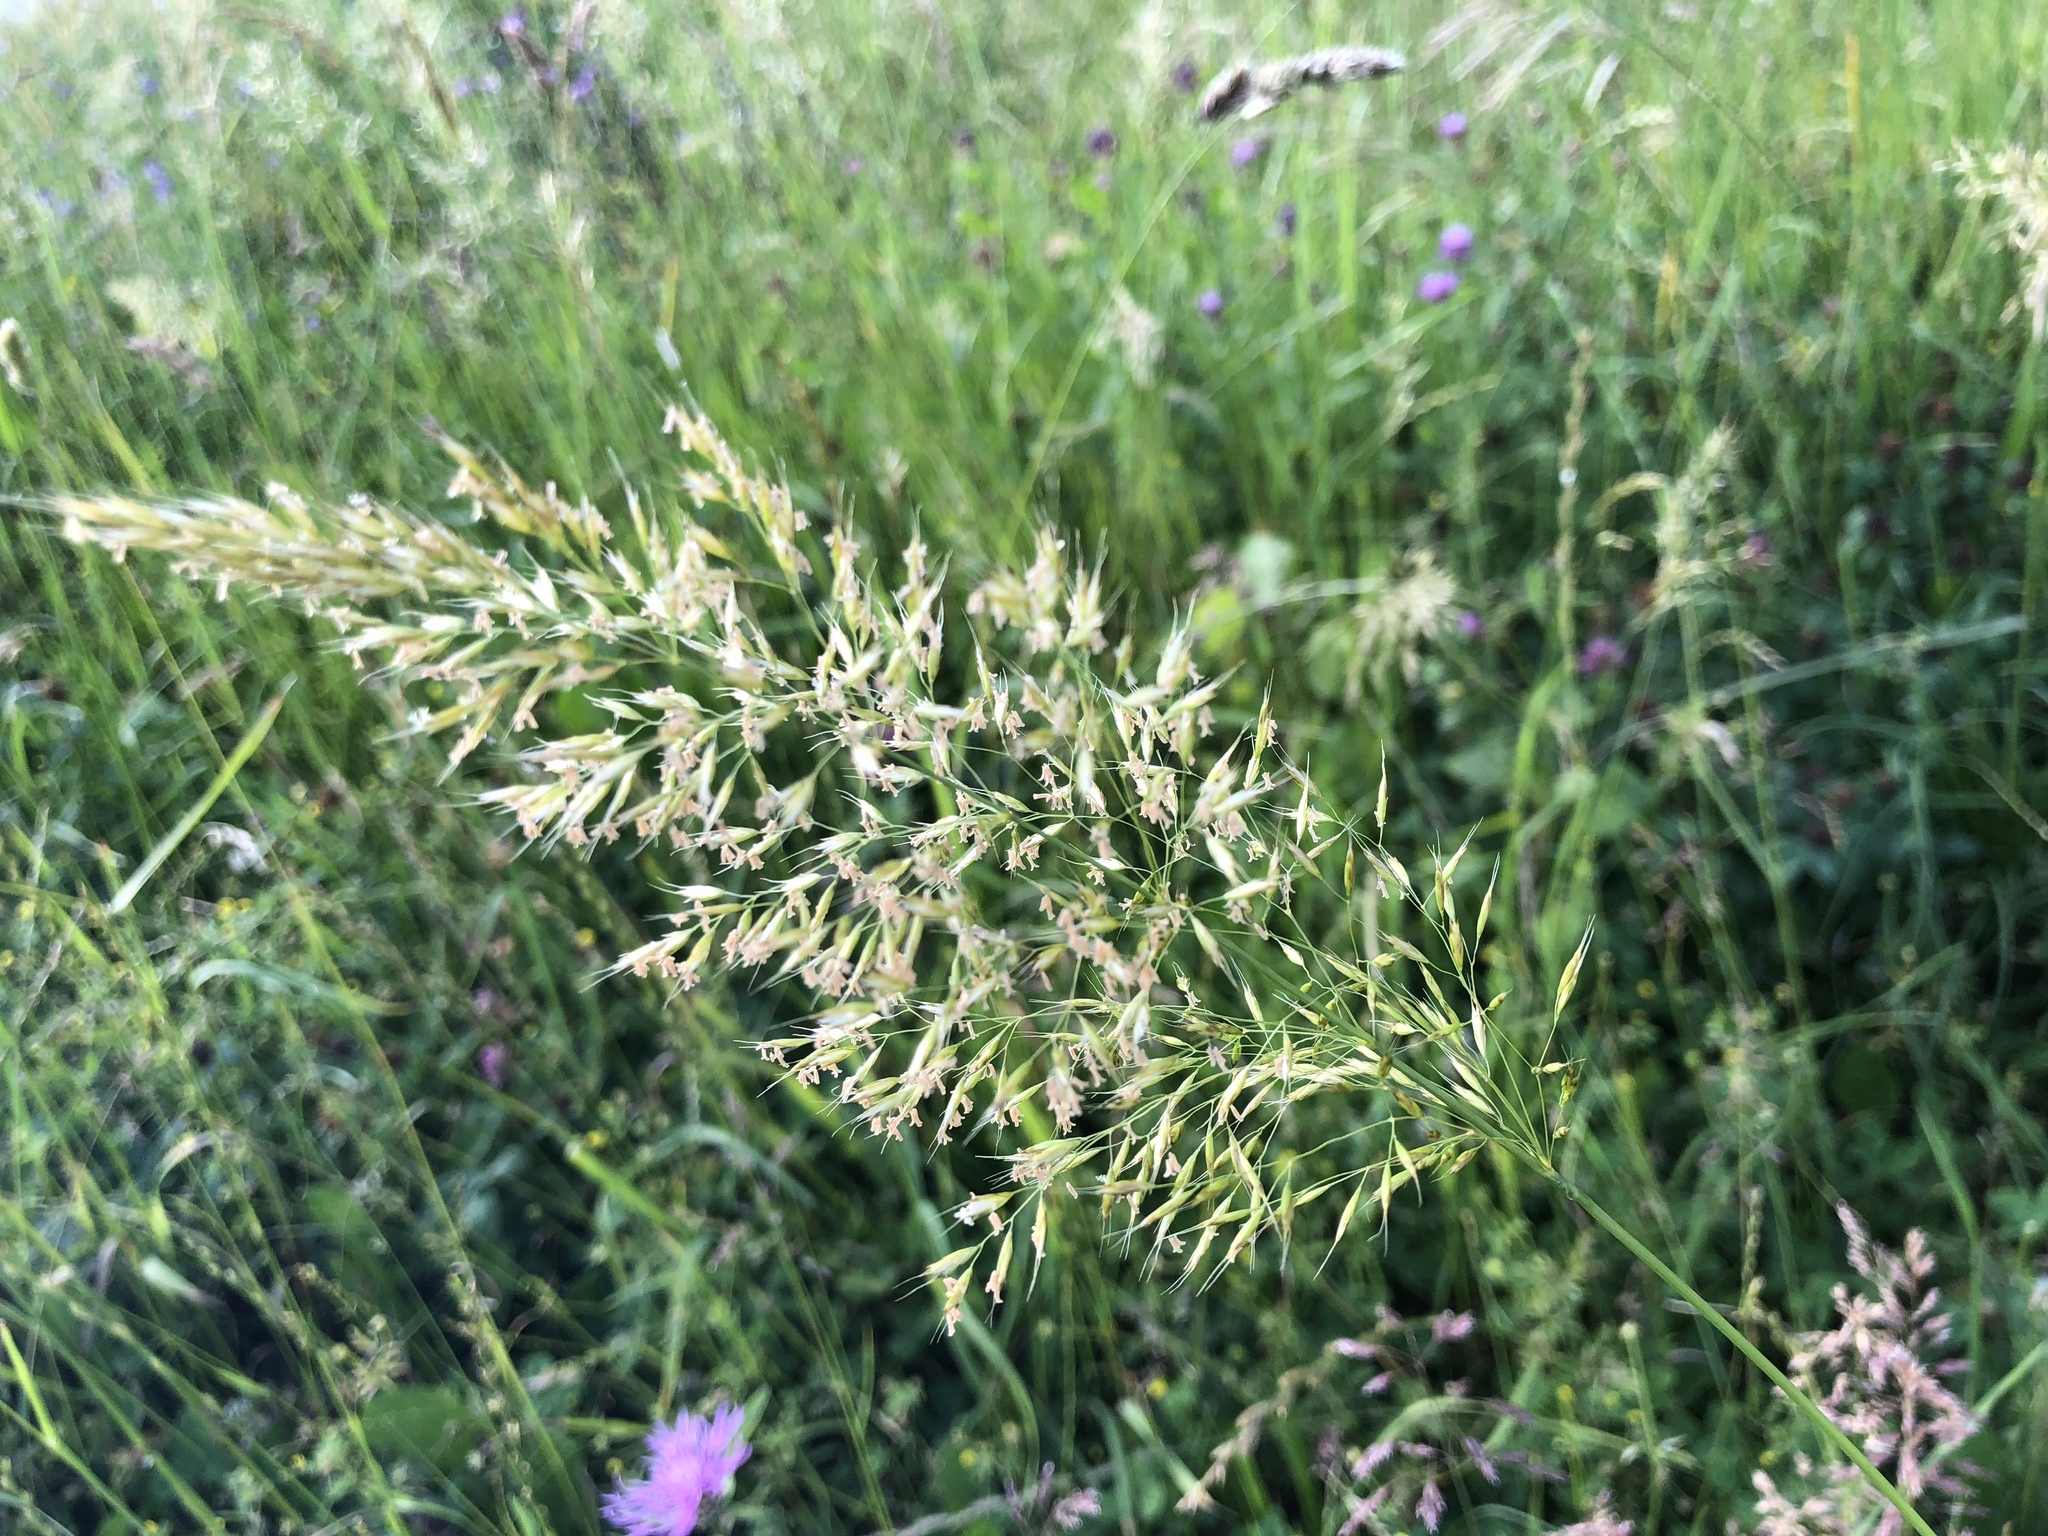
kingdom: Plantae
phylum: Tracheophyta
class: Liliopsida
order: Poales
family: Poaceae
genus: Trisetum
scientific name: Trisetum flavescens
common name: Yellow oat-grass
